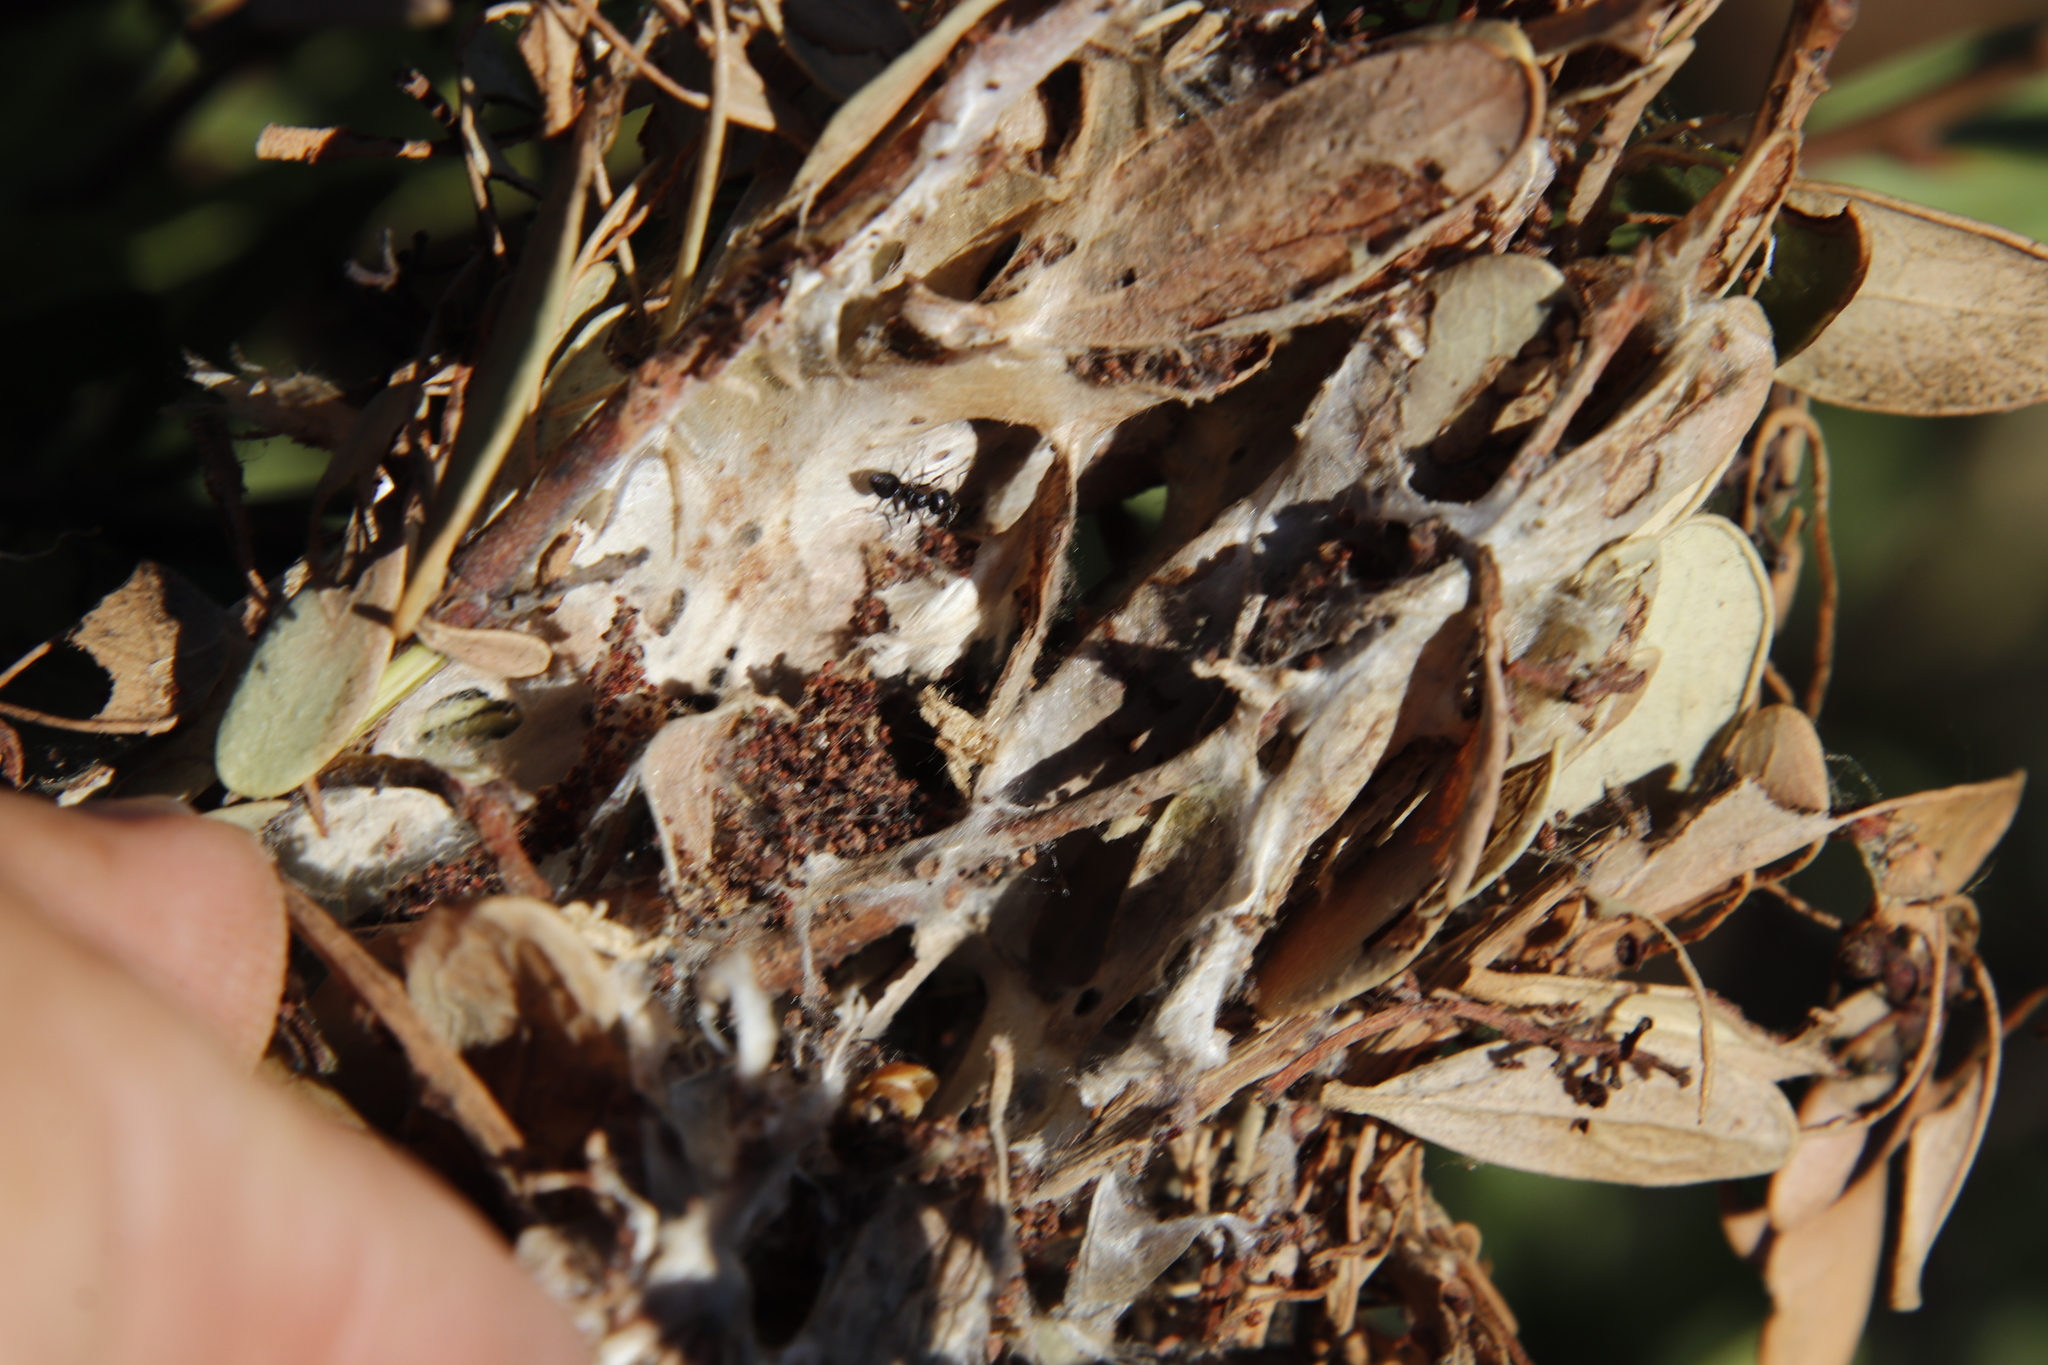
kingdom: Animalia
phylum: Arthropoda
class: Insecta
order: Lepidoptera
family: Erebidae
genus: Hypocala
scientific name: Hypocala deflorata
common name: Moth
